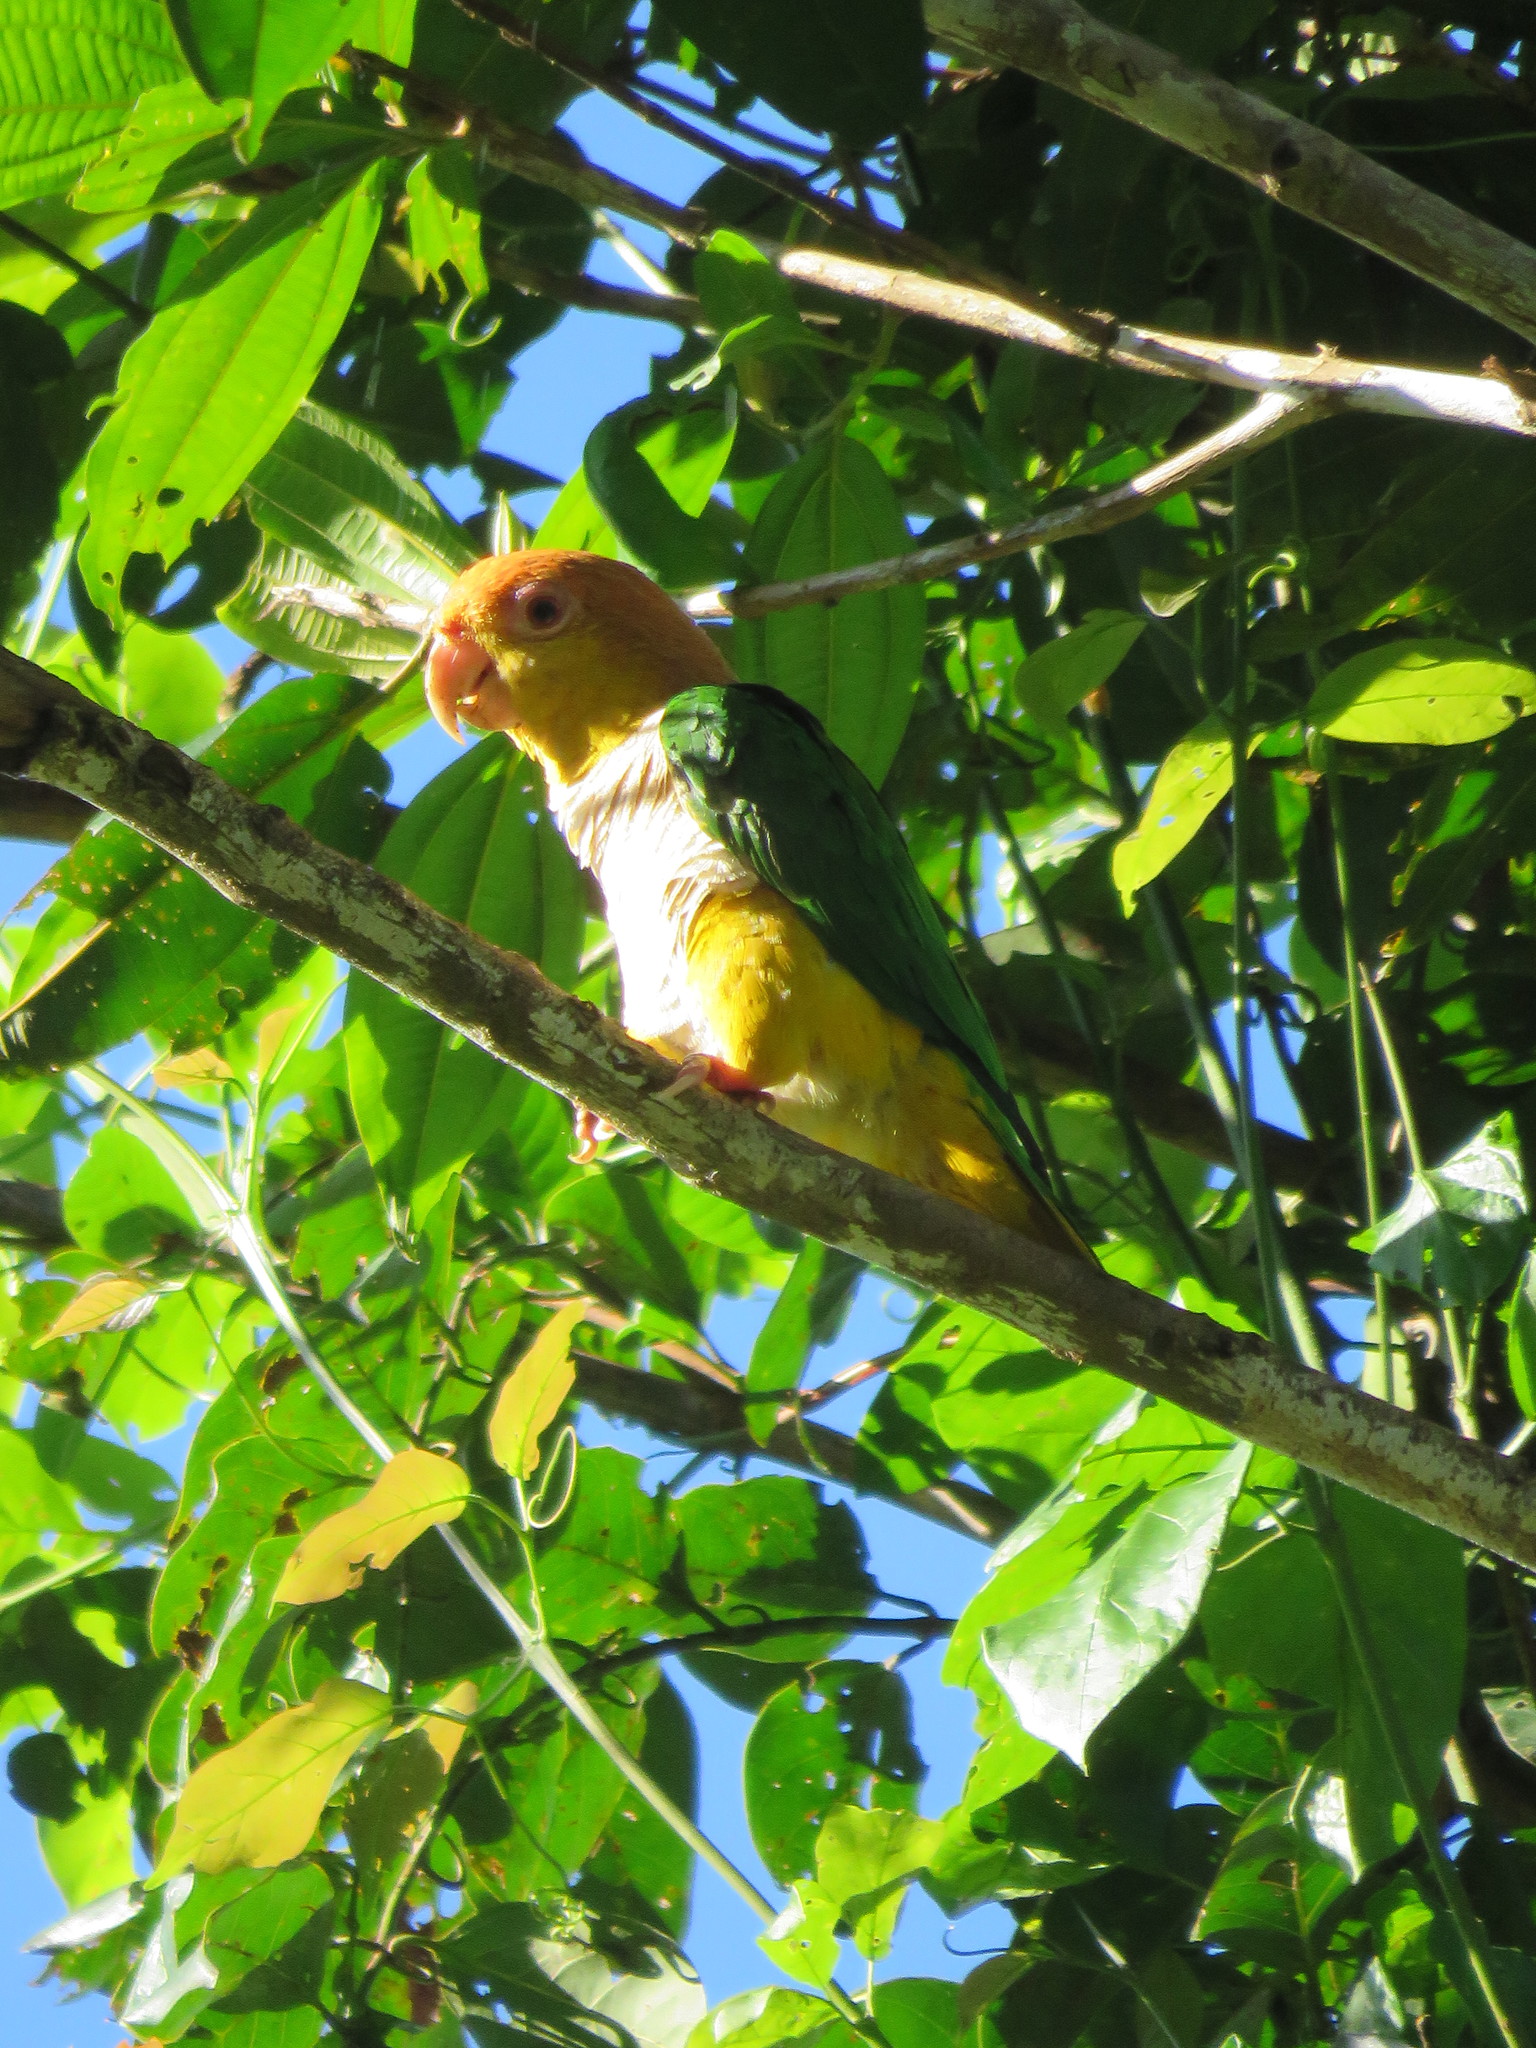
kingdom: Animalia
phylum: Chordata
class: Aves
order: Psittaciformes
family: Psittacidae
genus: Pionites
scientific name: Pionites leucogaster
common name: White-bellied parrot
